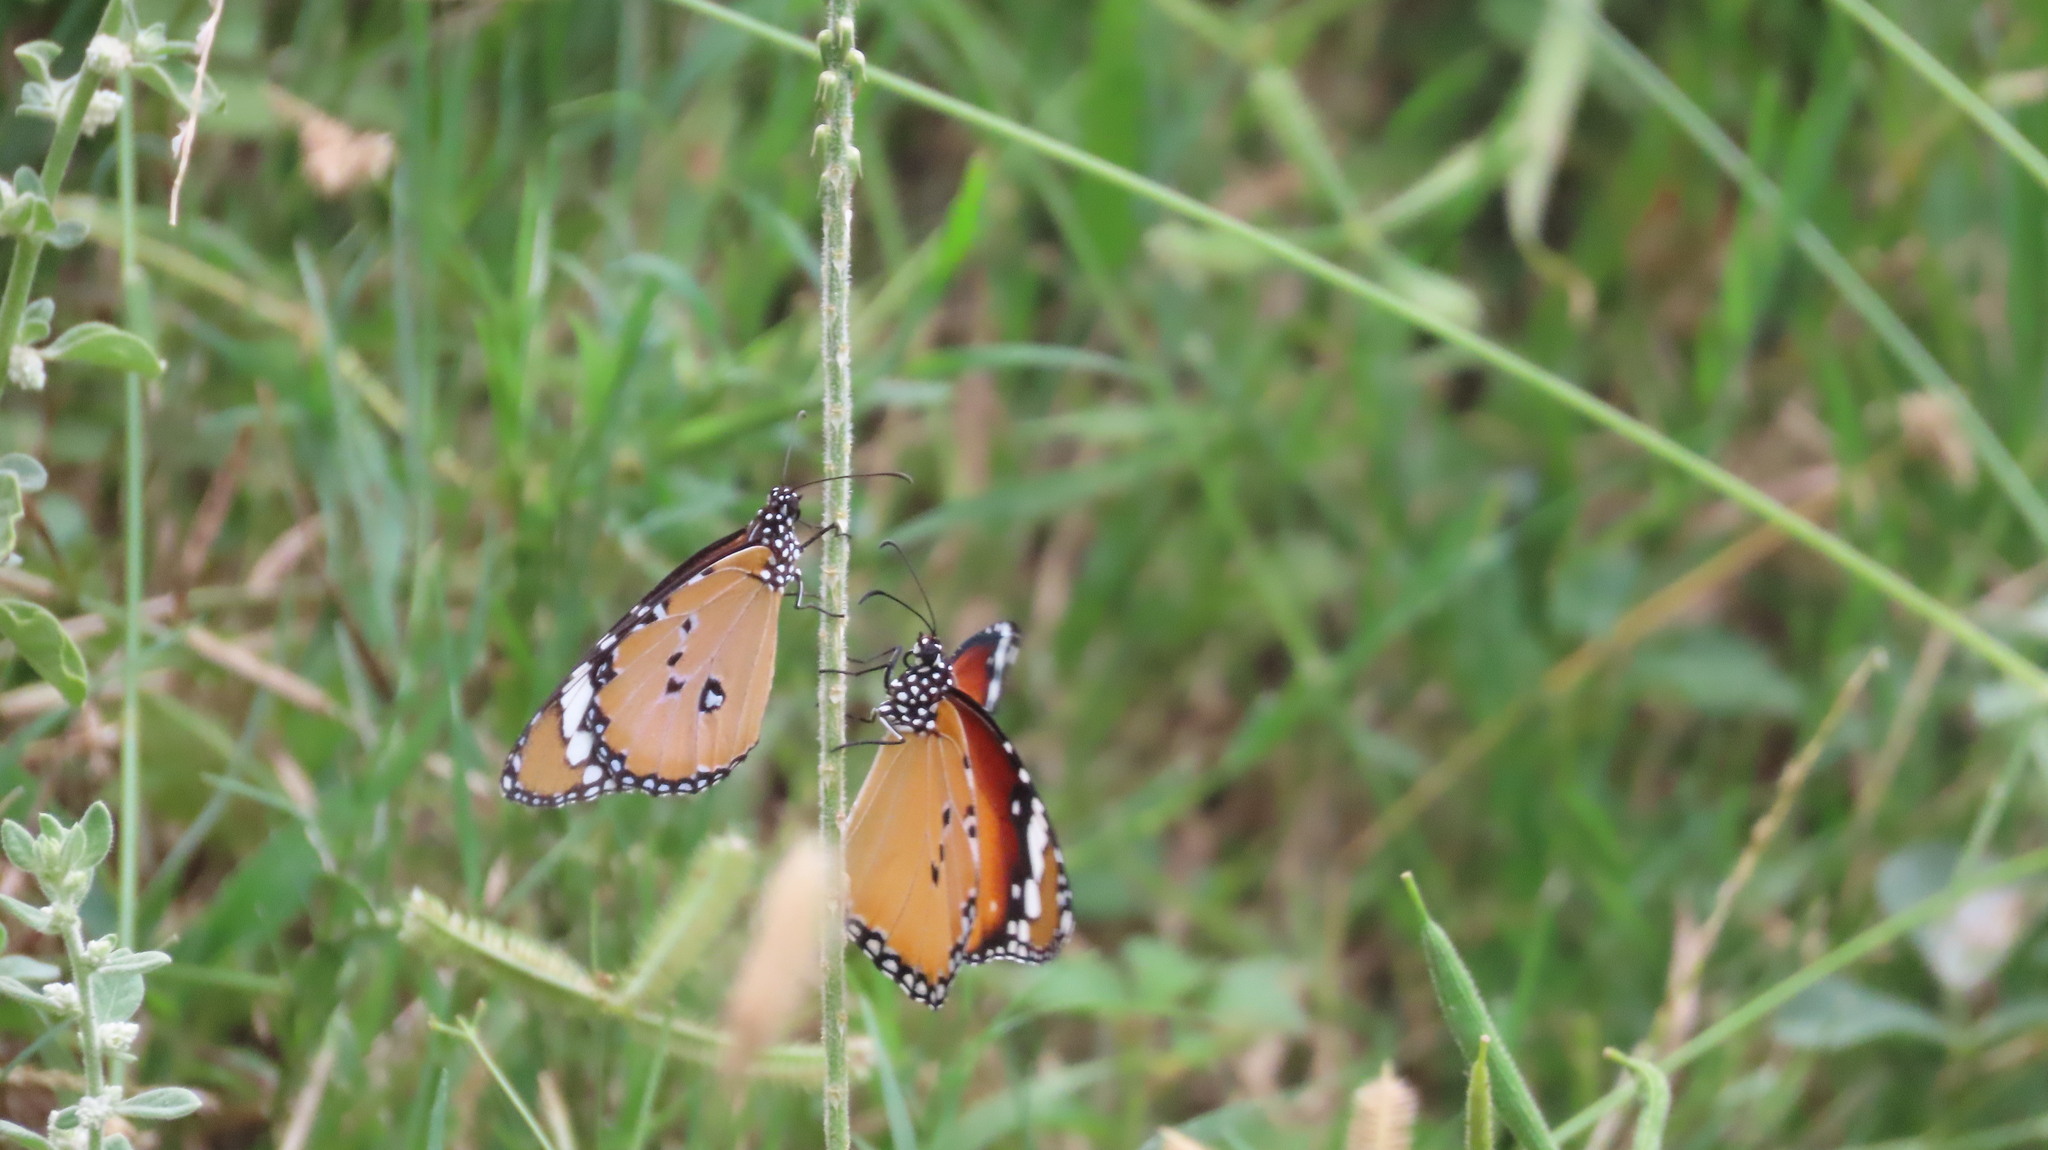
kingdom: Animalia
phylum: Arthropoda
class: Insecta
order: Lepidoptera
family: Nymphalidae
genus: Danaus
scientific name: Danaus chrysippus
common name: Plain tiger
